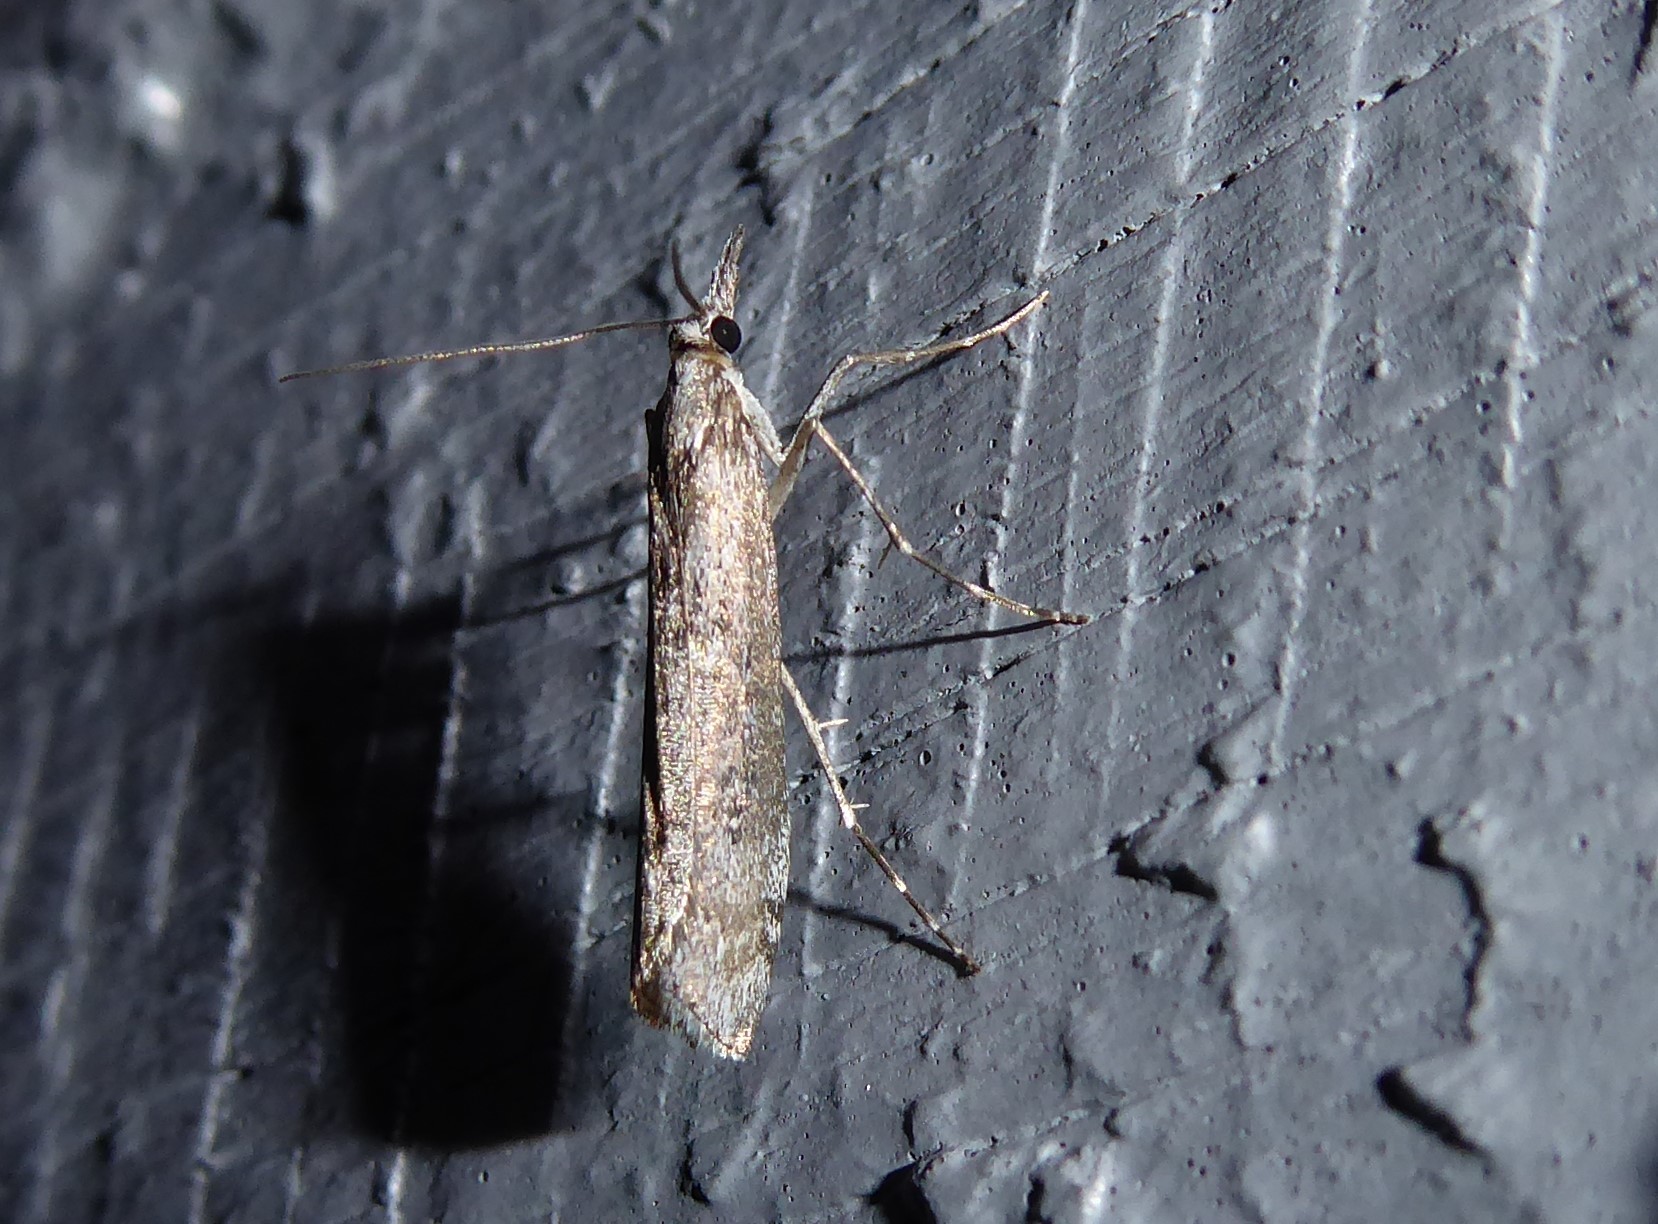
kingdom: Animalia
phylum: Arthropoda
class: Insecta
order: Lepidoptera
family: Crambidae
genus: Orocrambus
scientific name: Orocrambus cyclopicus
